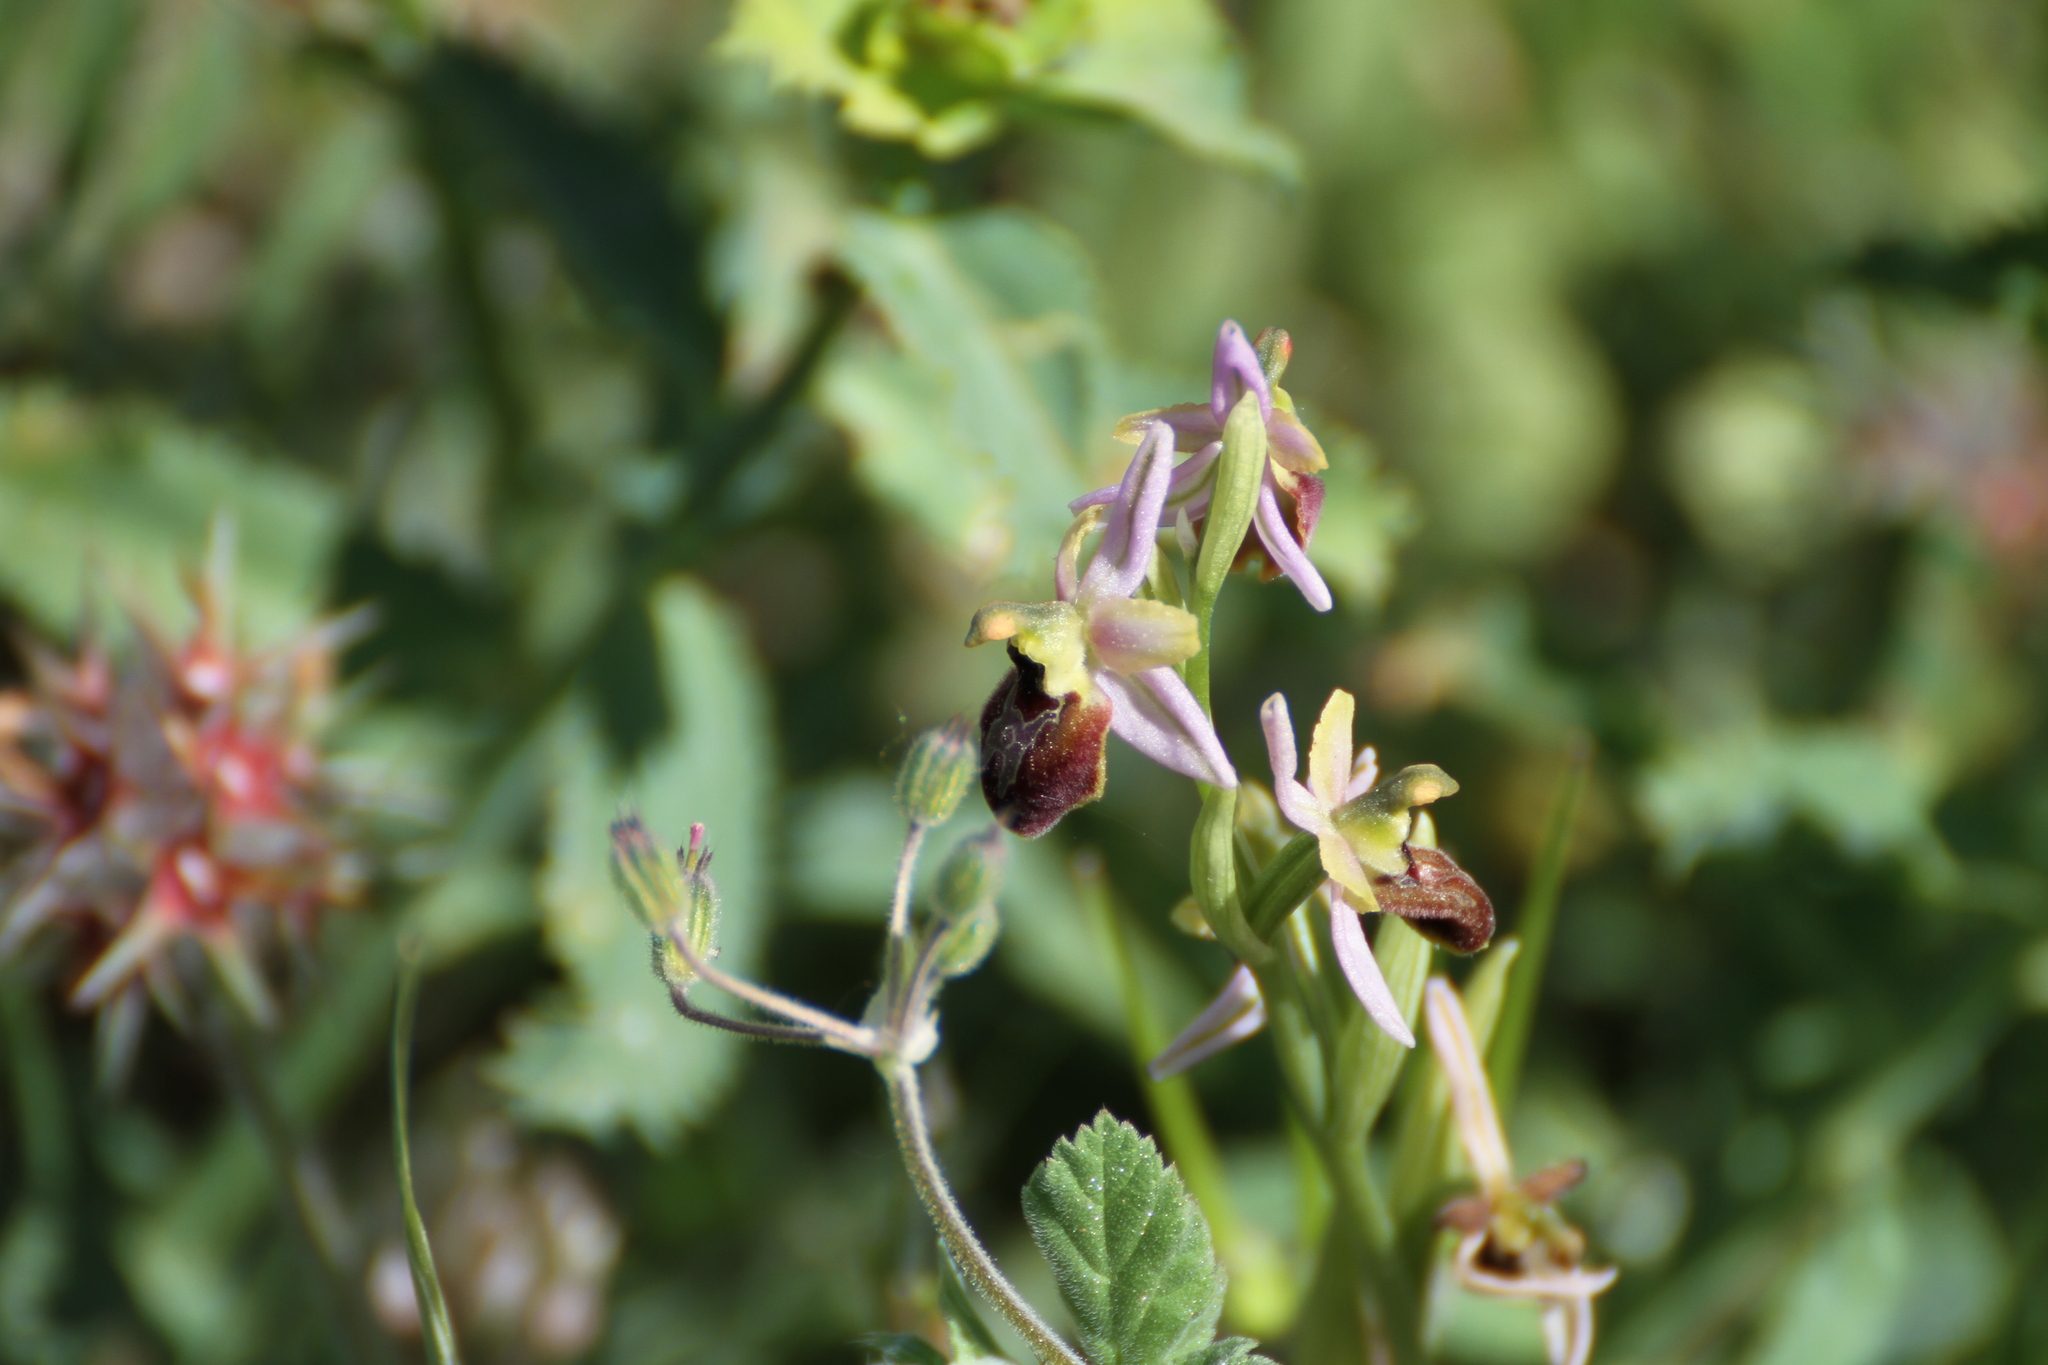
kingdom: Plantae
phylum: Tracheophyta
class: Liliopsida
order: Asparagales
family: Orchidaceae
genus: Ophrys
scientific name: Ophrys arachnitiformis
